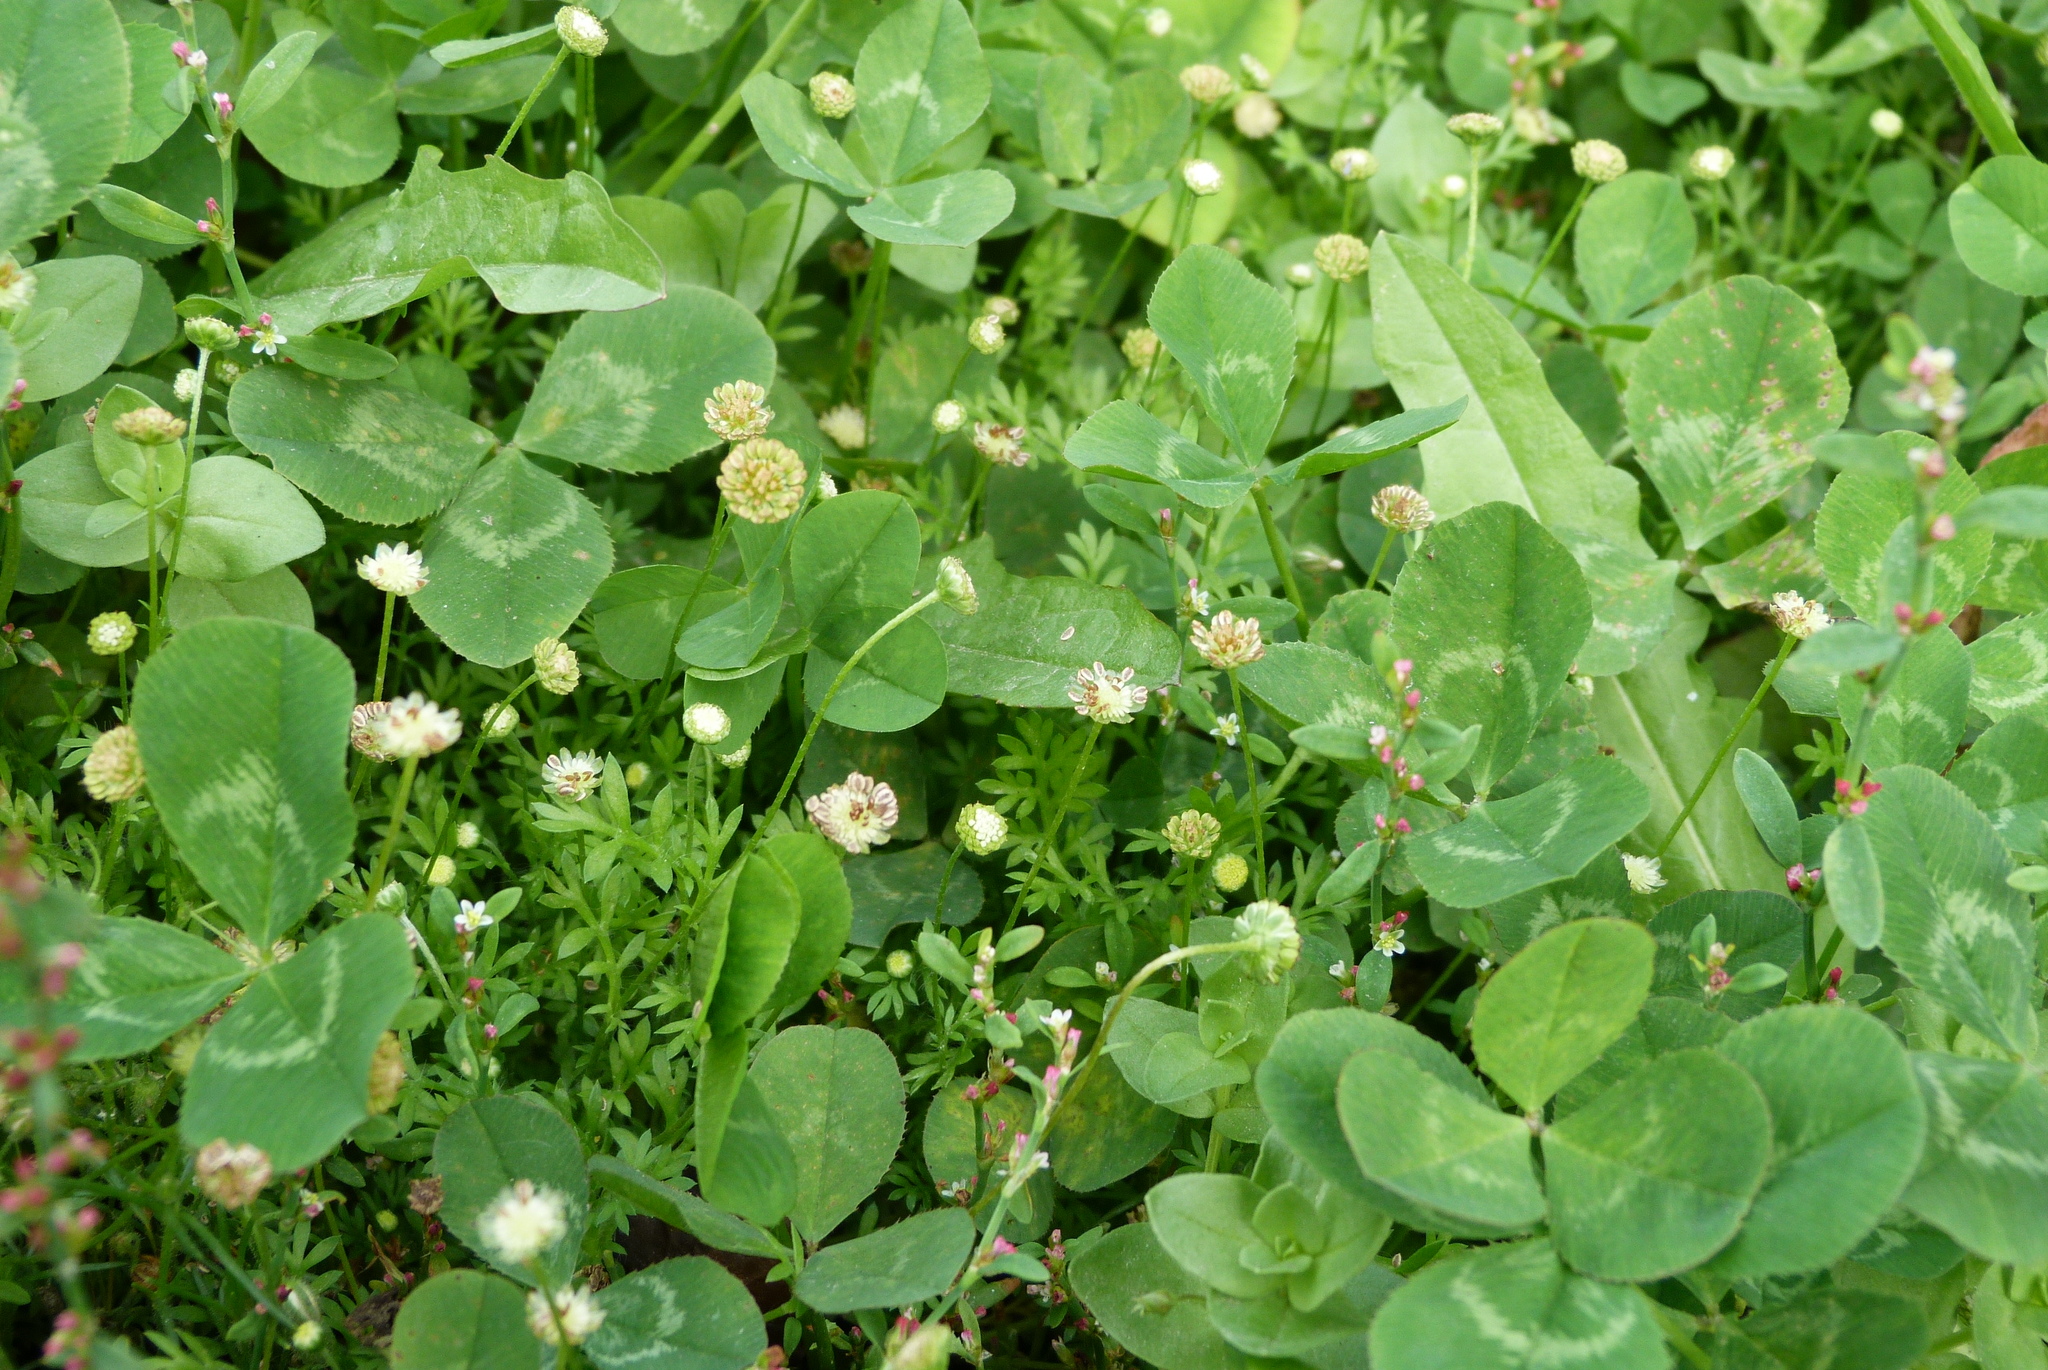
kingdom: Plantae
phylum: Tracheophyta
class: Magnoliopsida
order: Asterales
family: Asteraceae
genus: Cotula
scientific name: Cotula australis
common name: Australian waterbuttons
